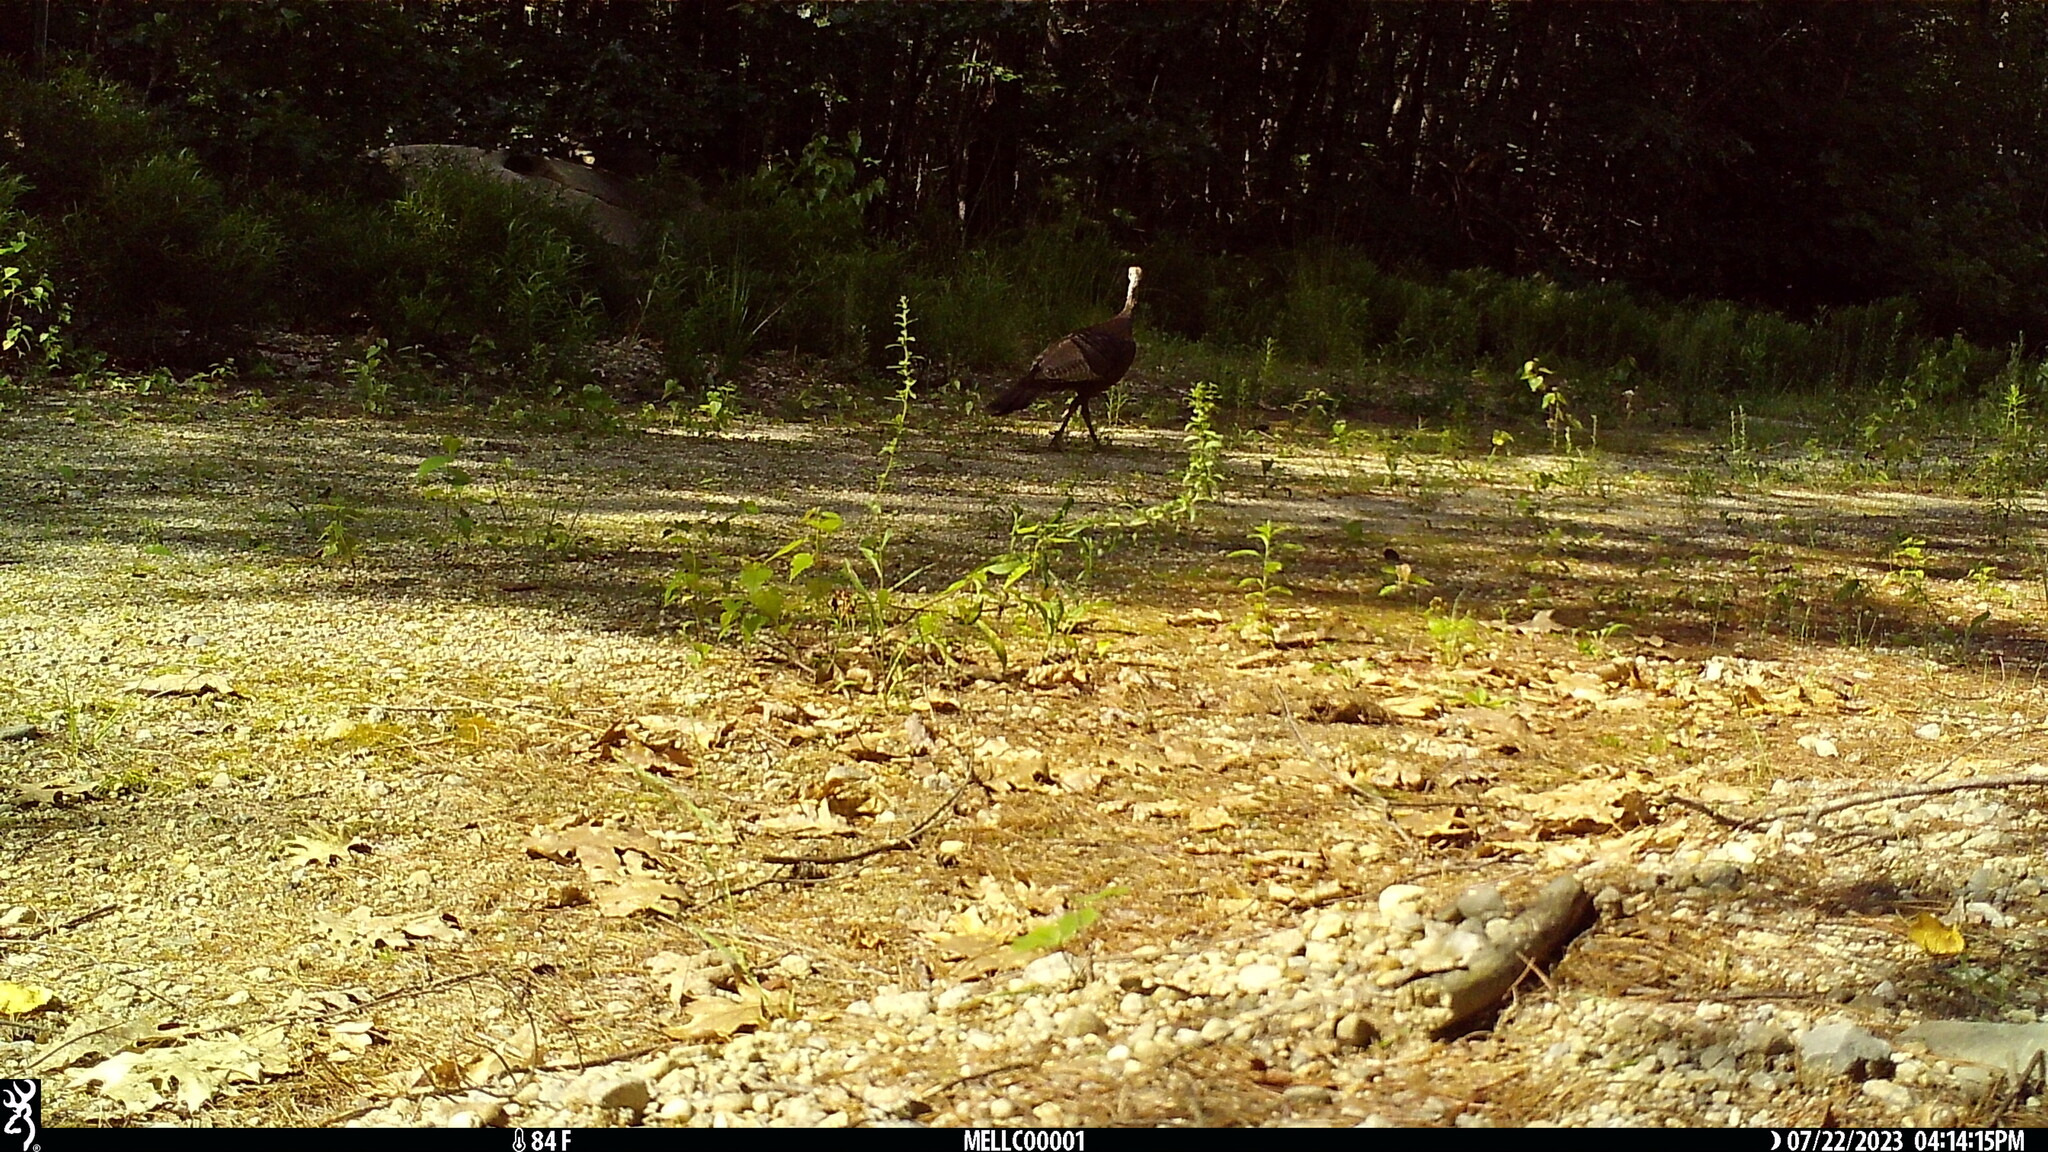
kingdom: Animalia
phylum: Chordata
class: Aves
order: Galliformes
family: Phasianidae
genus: Meleagris
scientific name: Meleagris gallopavo
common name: Wild turkey
